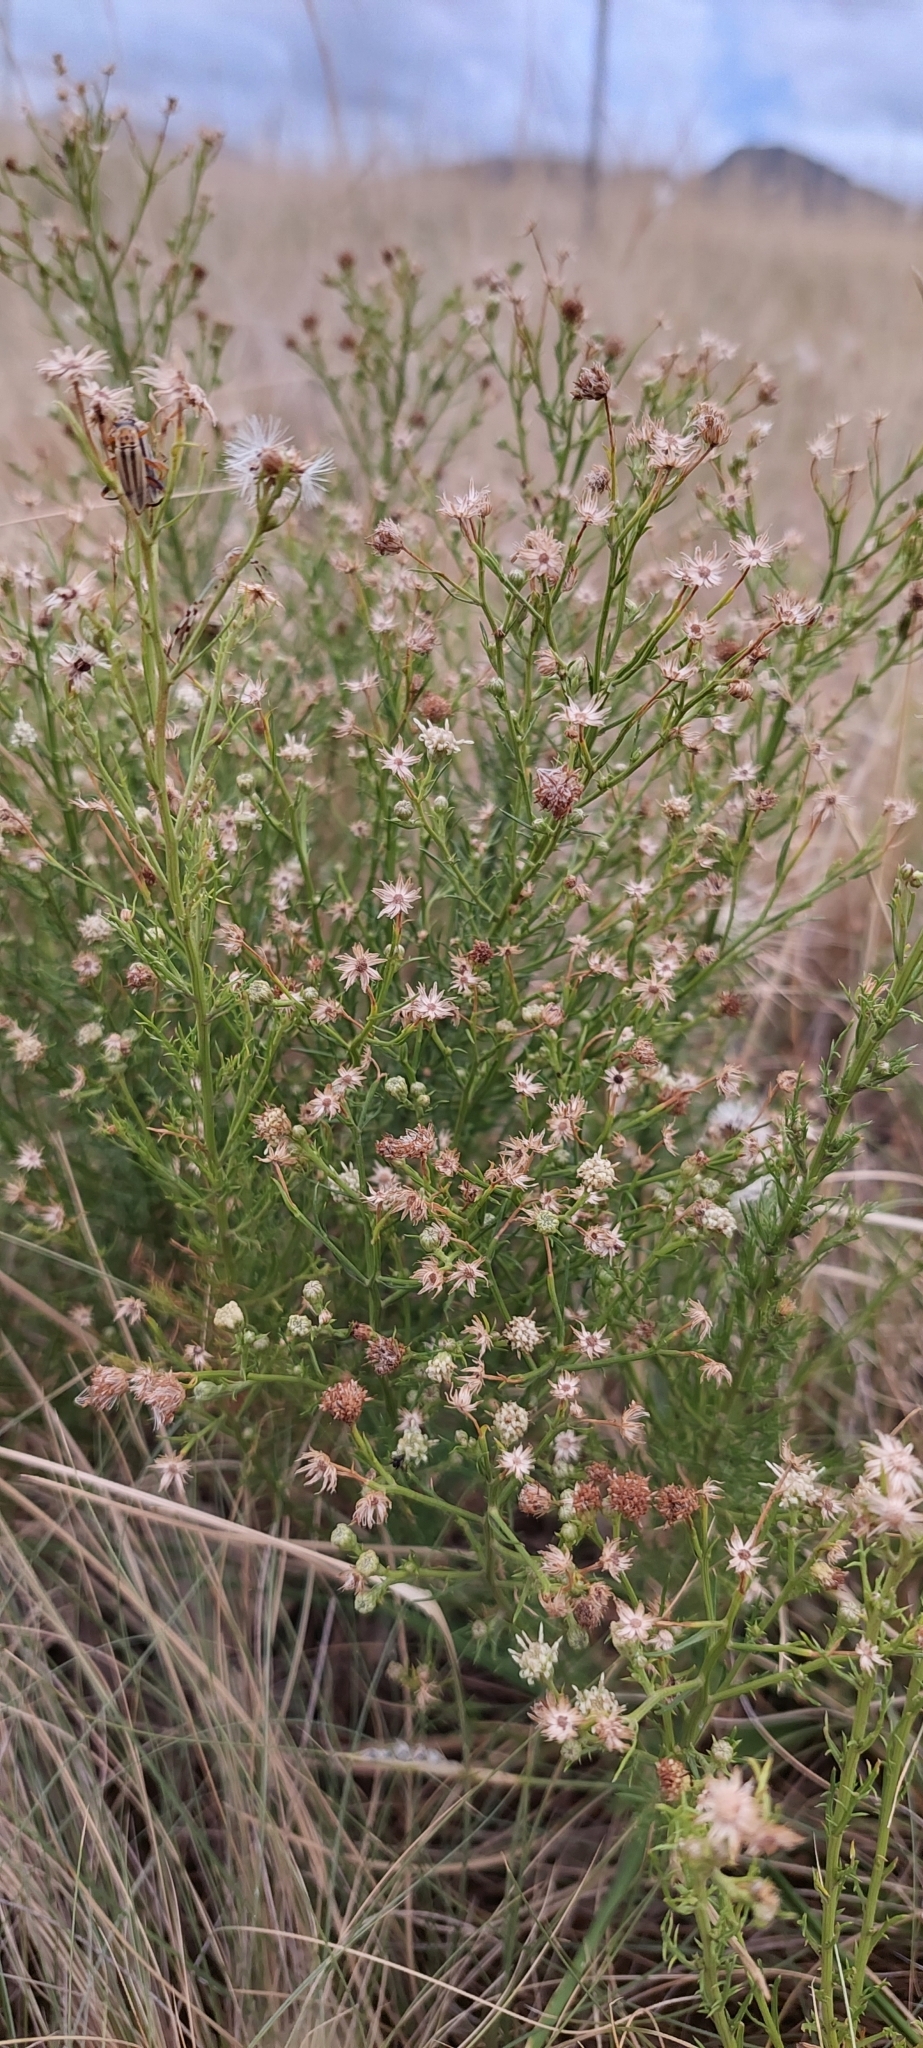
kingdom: Plantae
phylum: Tracheophyta
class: Magnoliopsida
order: Asterales
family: Asteraceae
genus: Baccharis
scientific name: Baccharis ulicina
